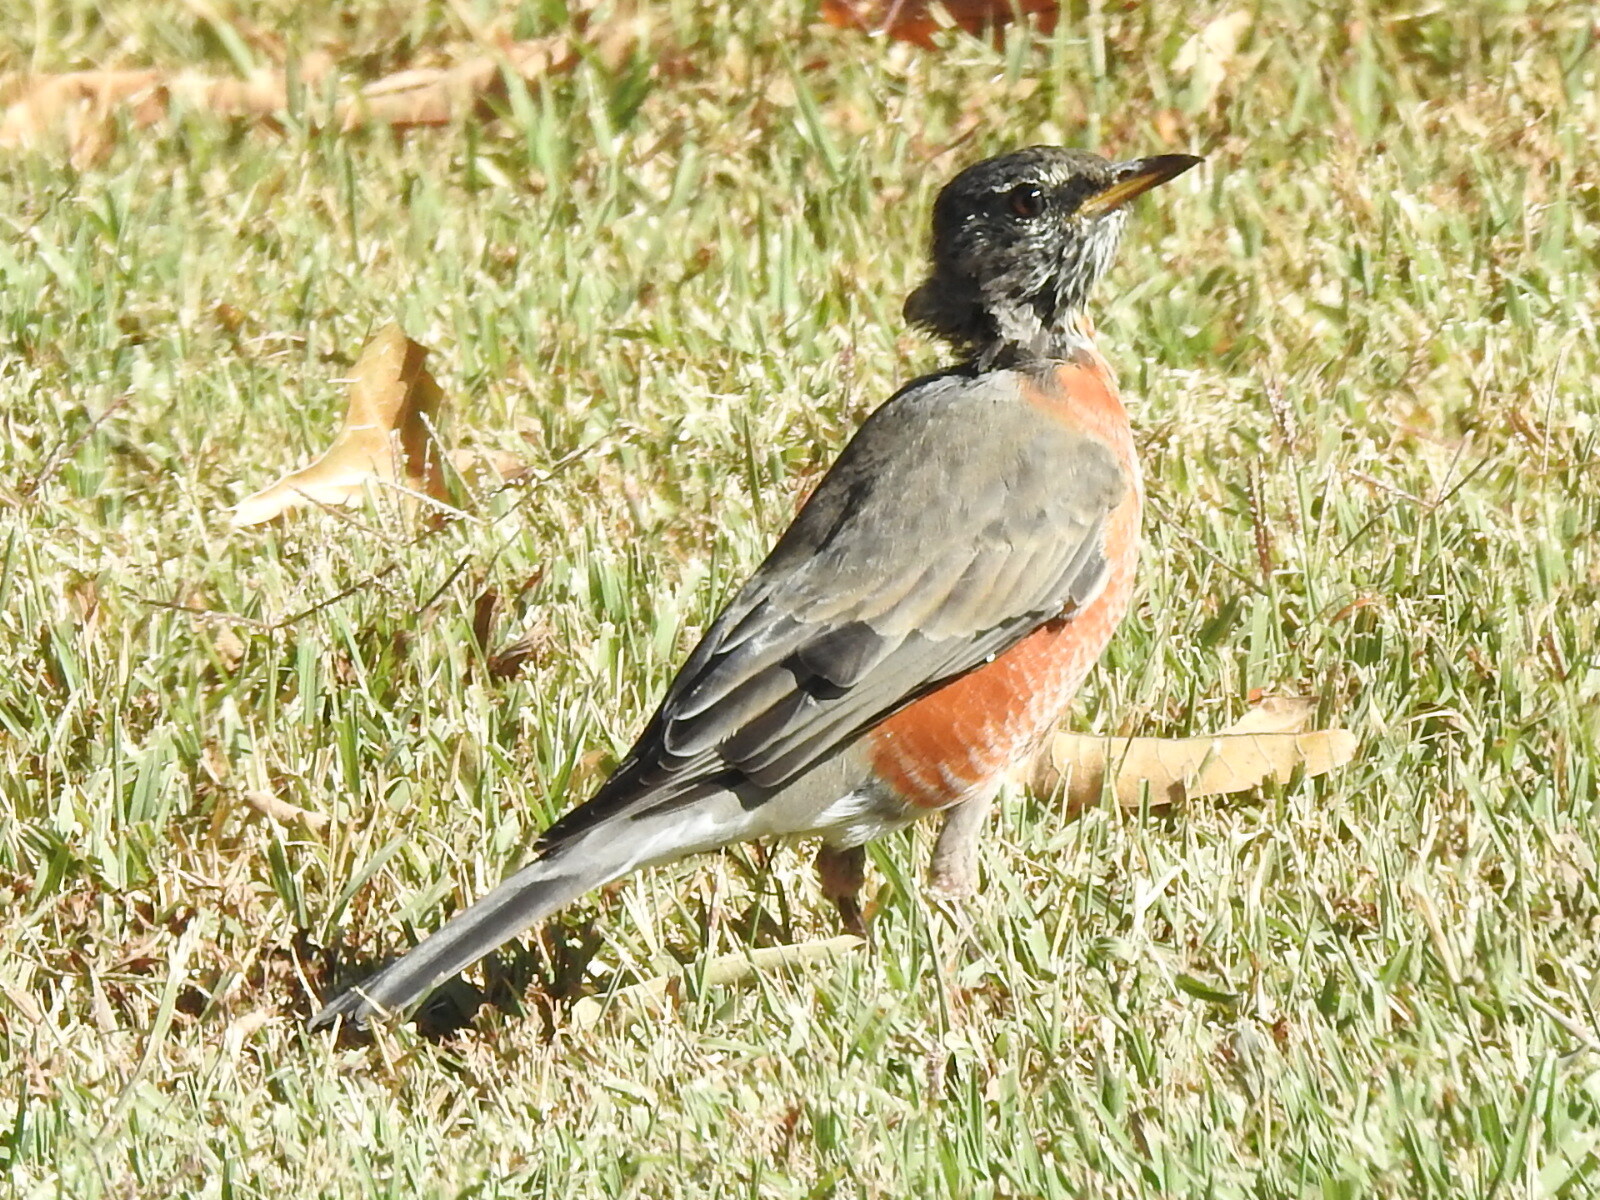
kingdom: Animalia
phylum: Chordata
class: Aves
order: Passeriformes
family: Turdidae
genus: Turdus
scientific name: Turdus migratorius
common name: American robin
